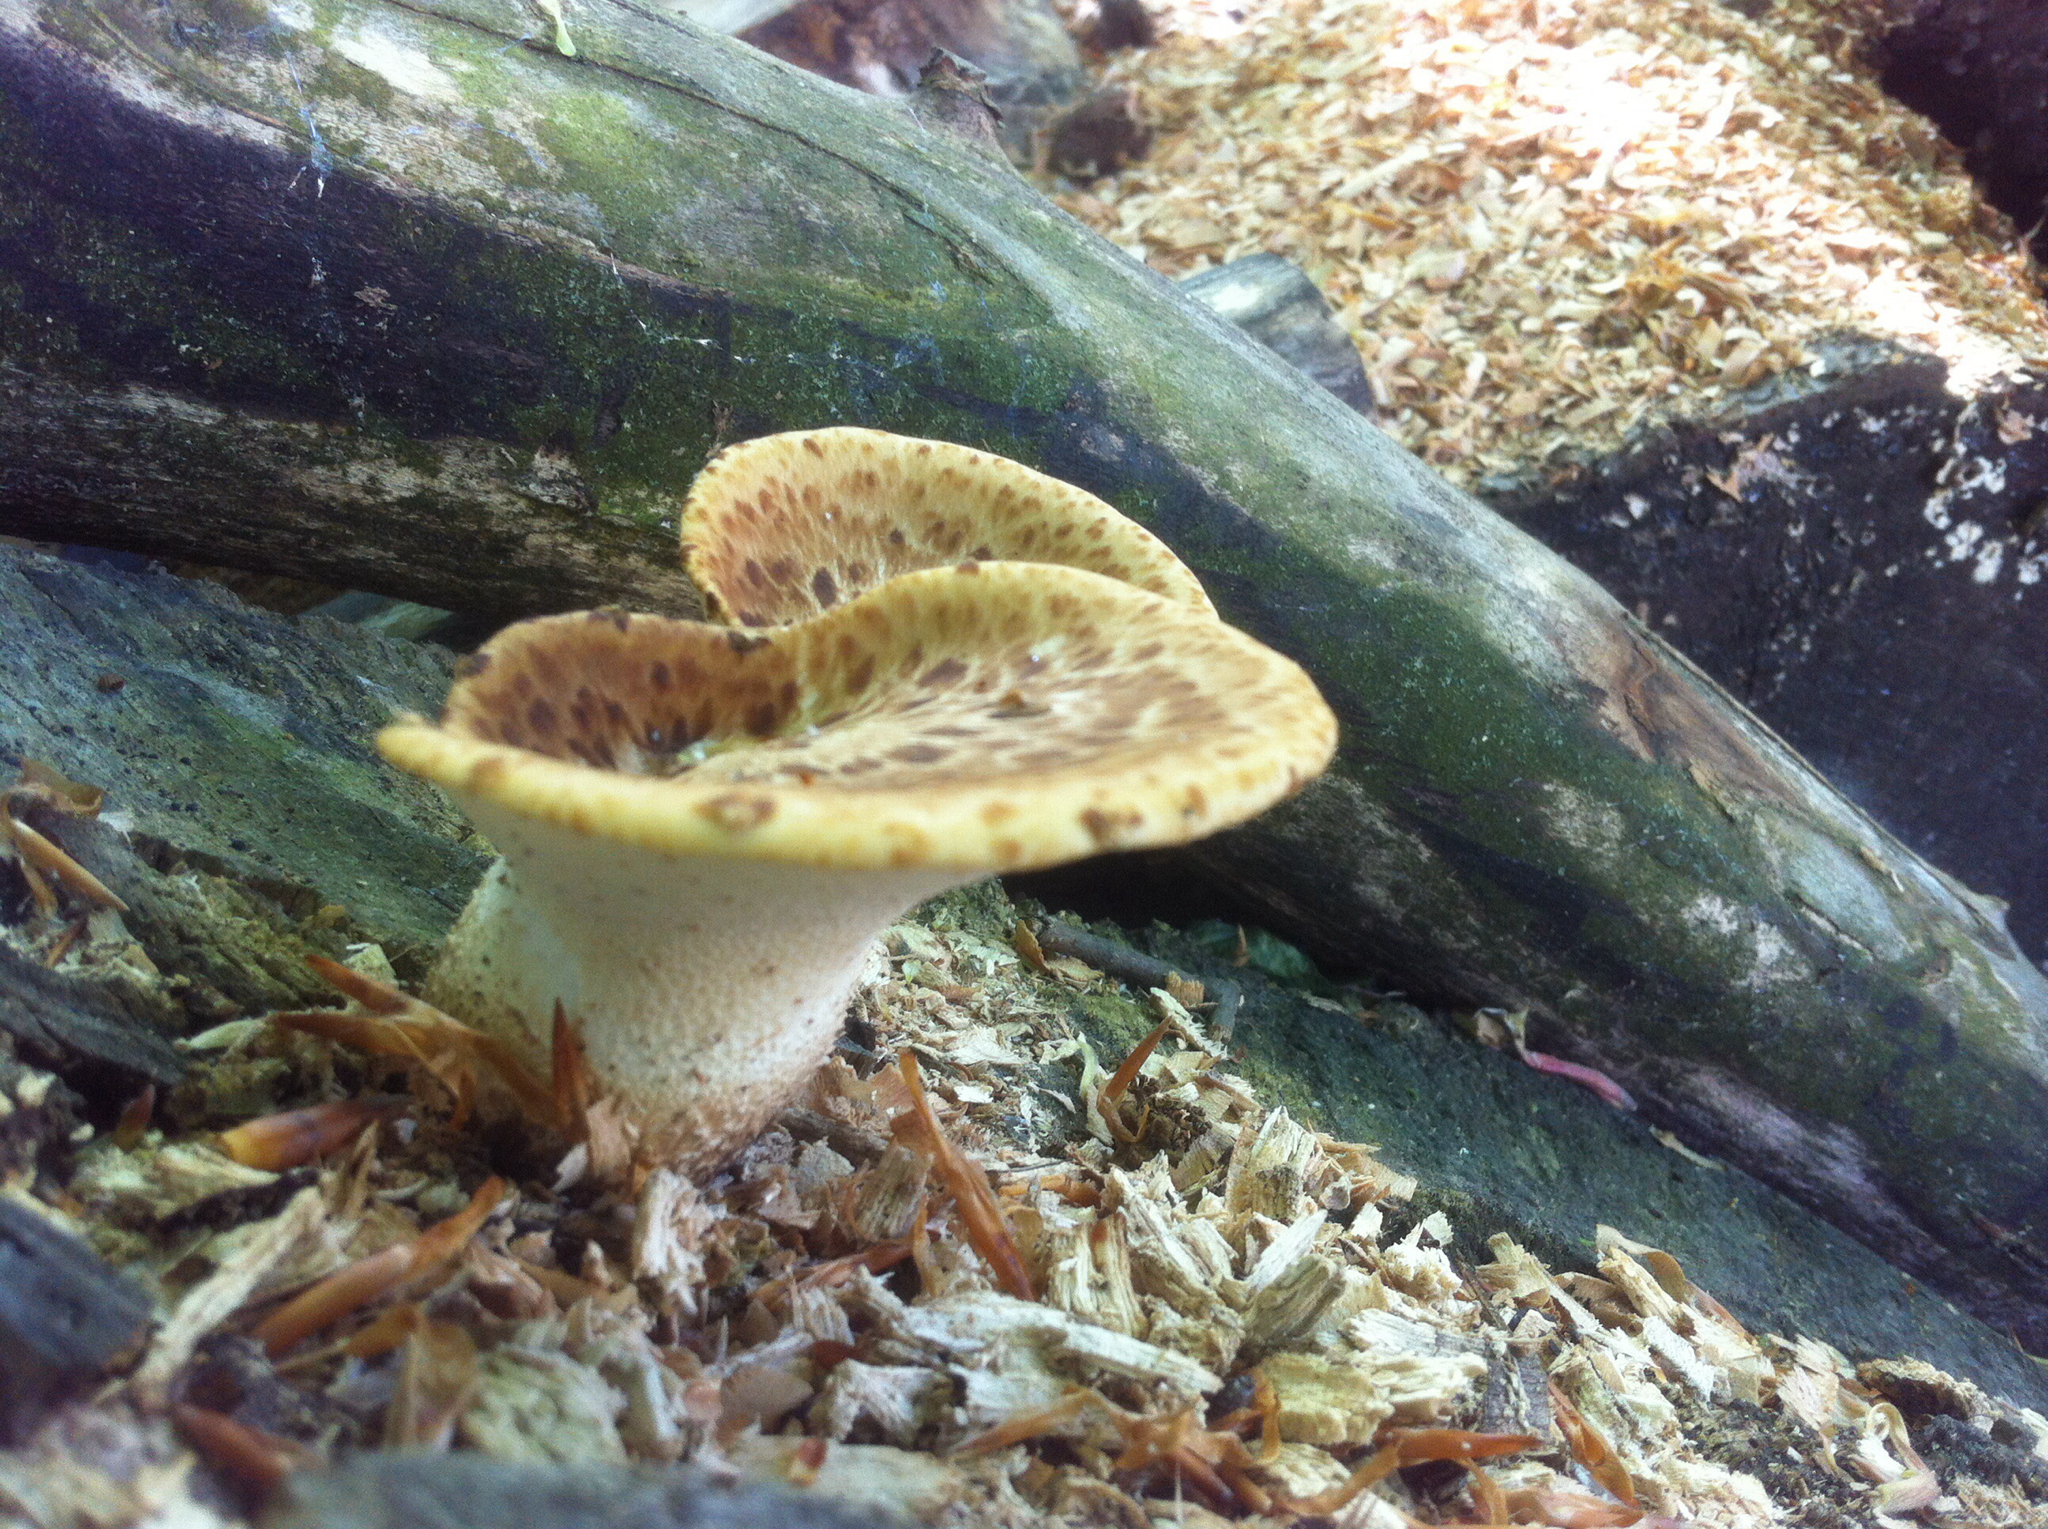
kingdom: Fungi
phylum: Basidiomycota
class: Agaricomycetes
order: Polyporales
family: Polyporaceae
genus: Cerioporus
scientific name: Cerioporus squamosus
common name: Dryad's saddle
